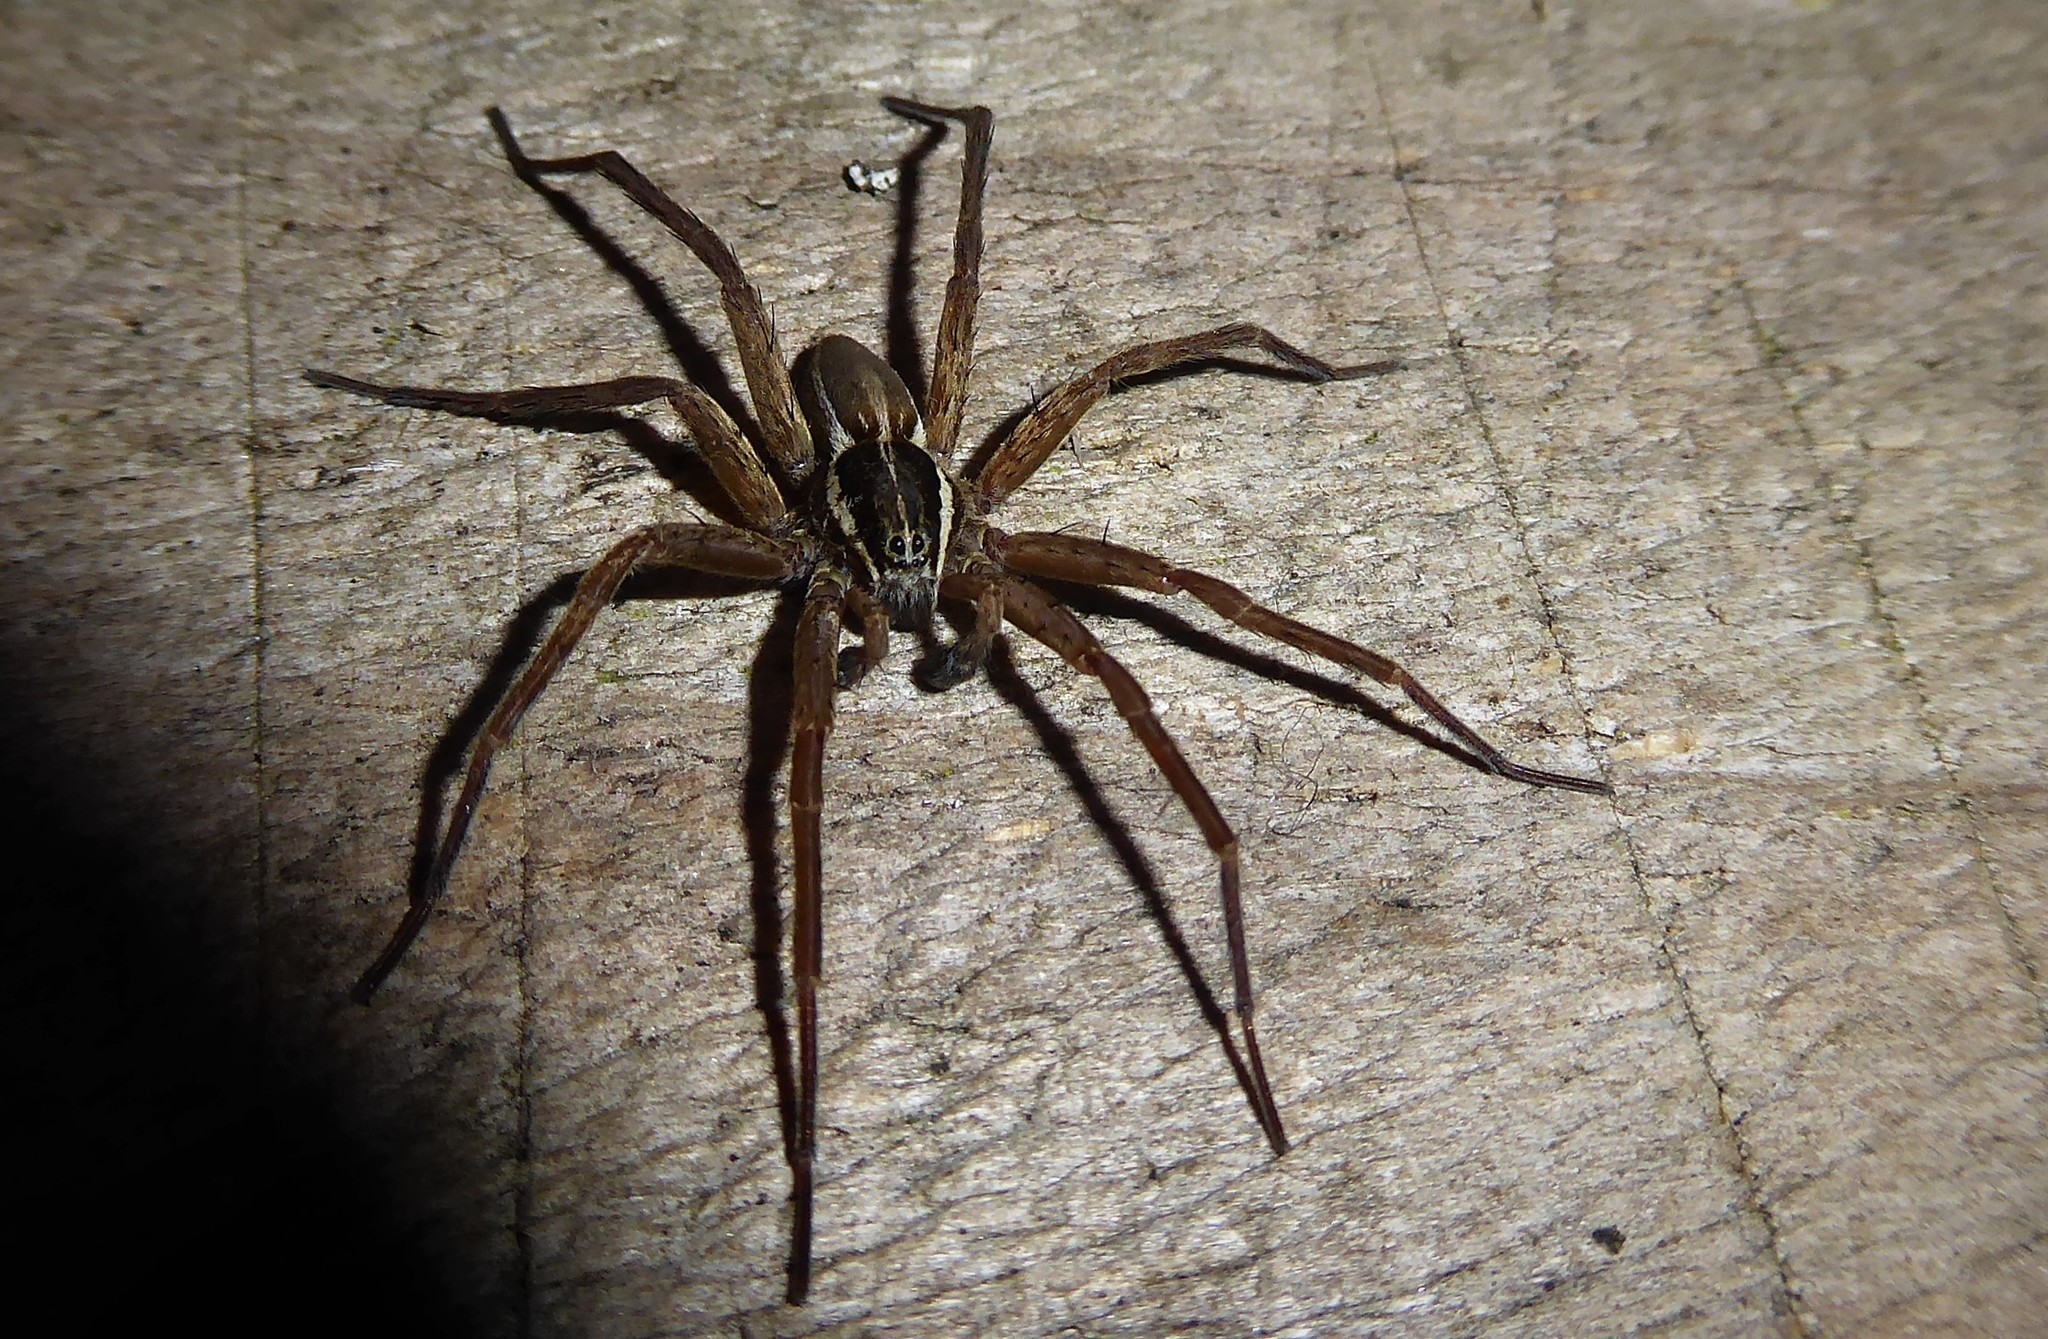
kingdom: Animalia
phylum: Arthropoda
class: Arachnida
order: Araneae
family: Pisauridae
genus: Dolomedes
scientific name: Dolomedes minor
